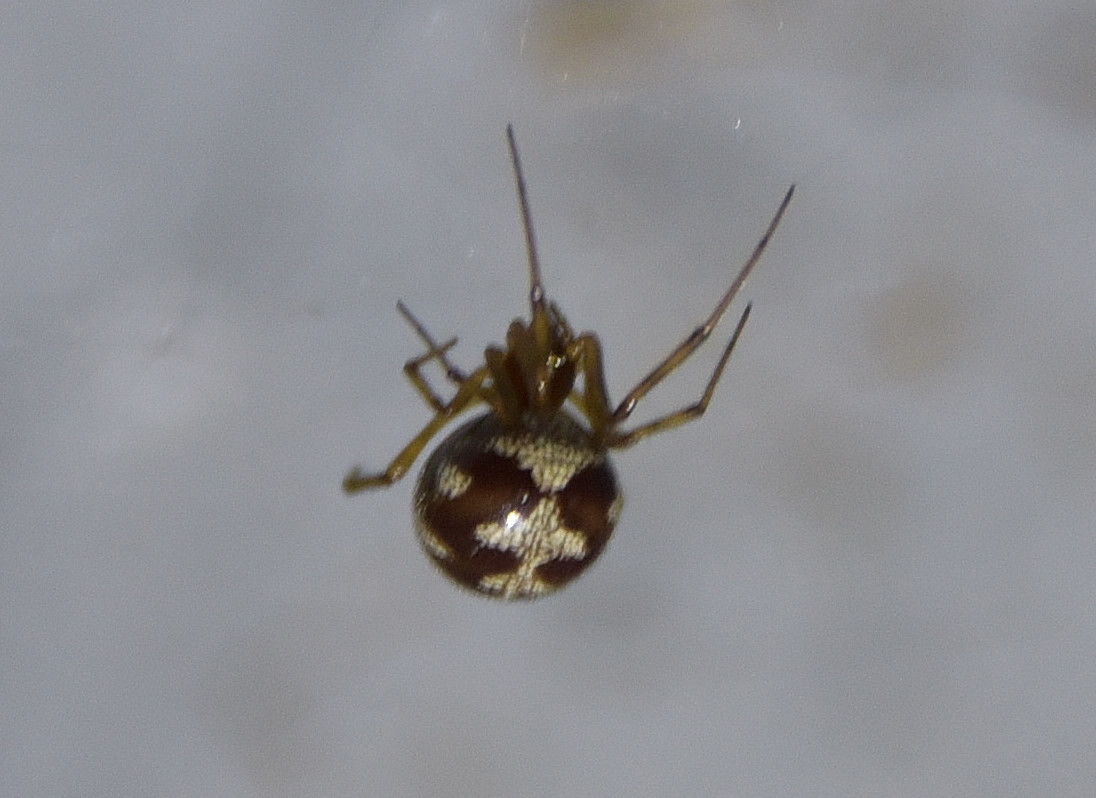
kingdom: Animalia
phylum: Arthropoda
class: Arachnida
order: Araneae
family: Theridiidae
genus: Steatoda
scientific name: Steatoda triangulosa
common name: Triangulate bud spider
